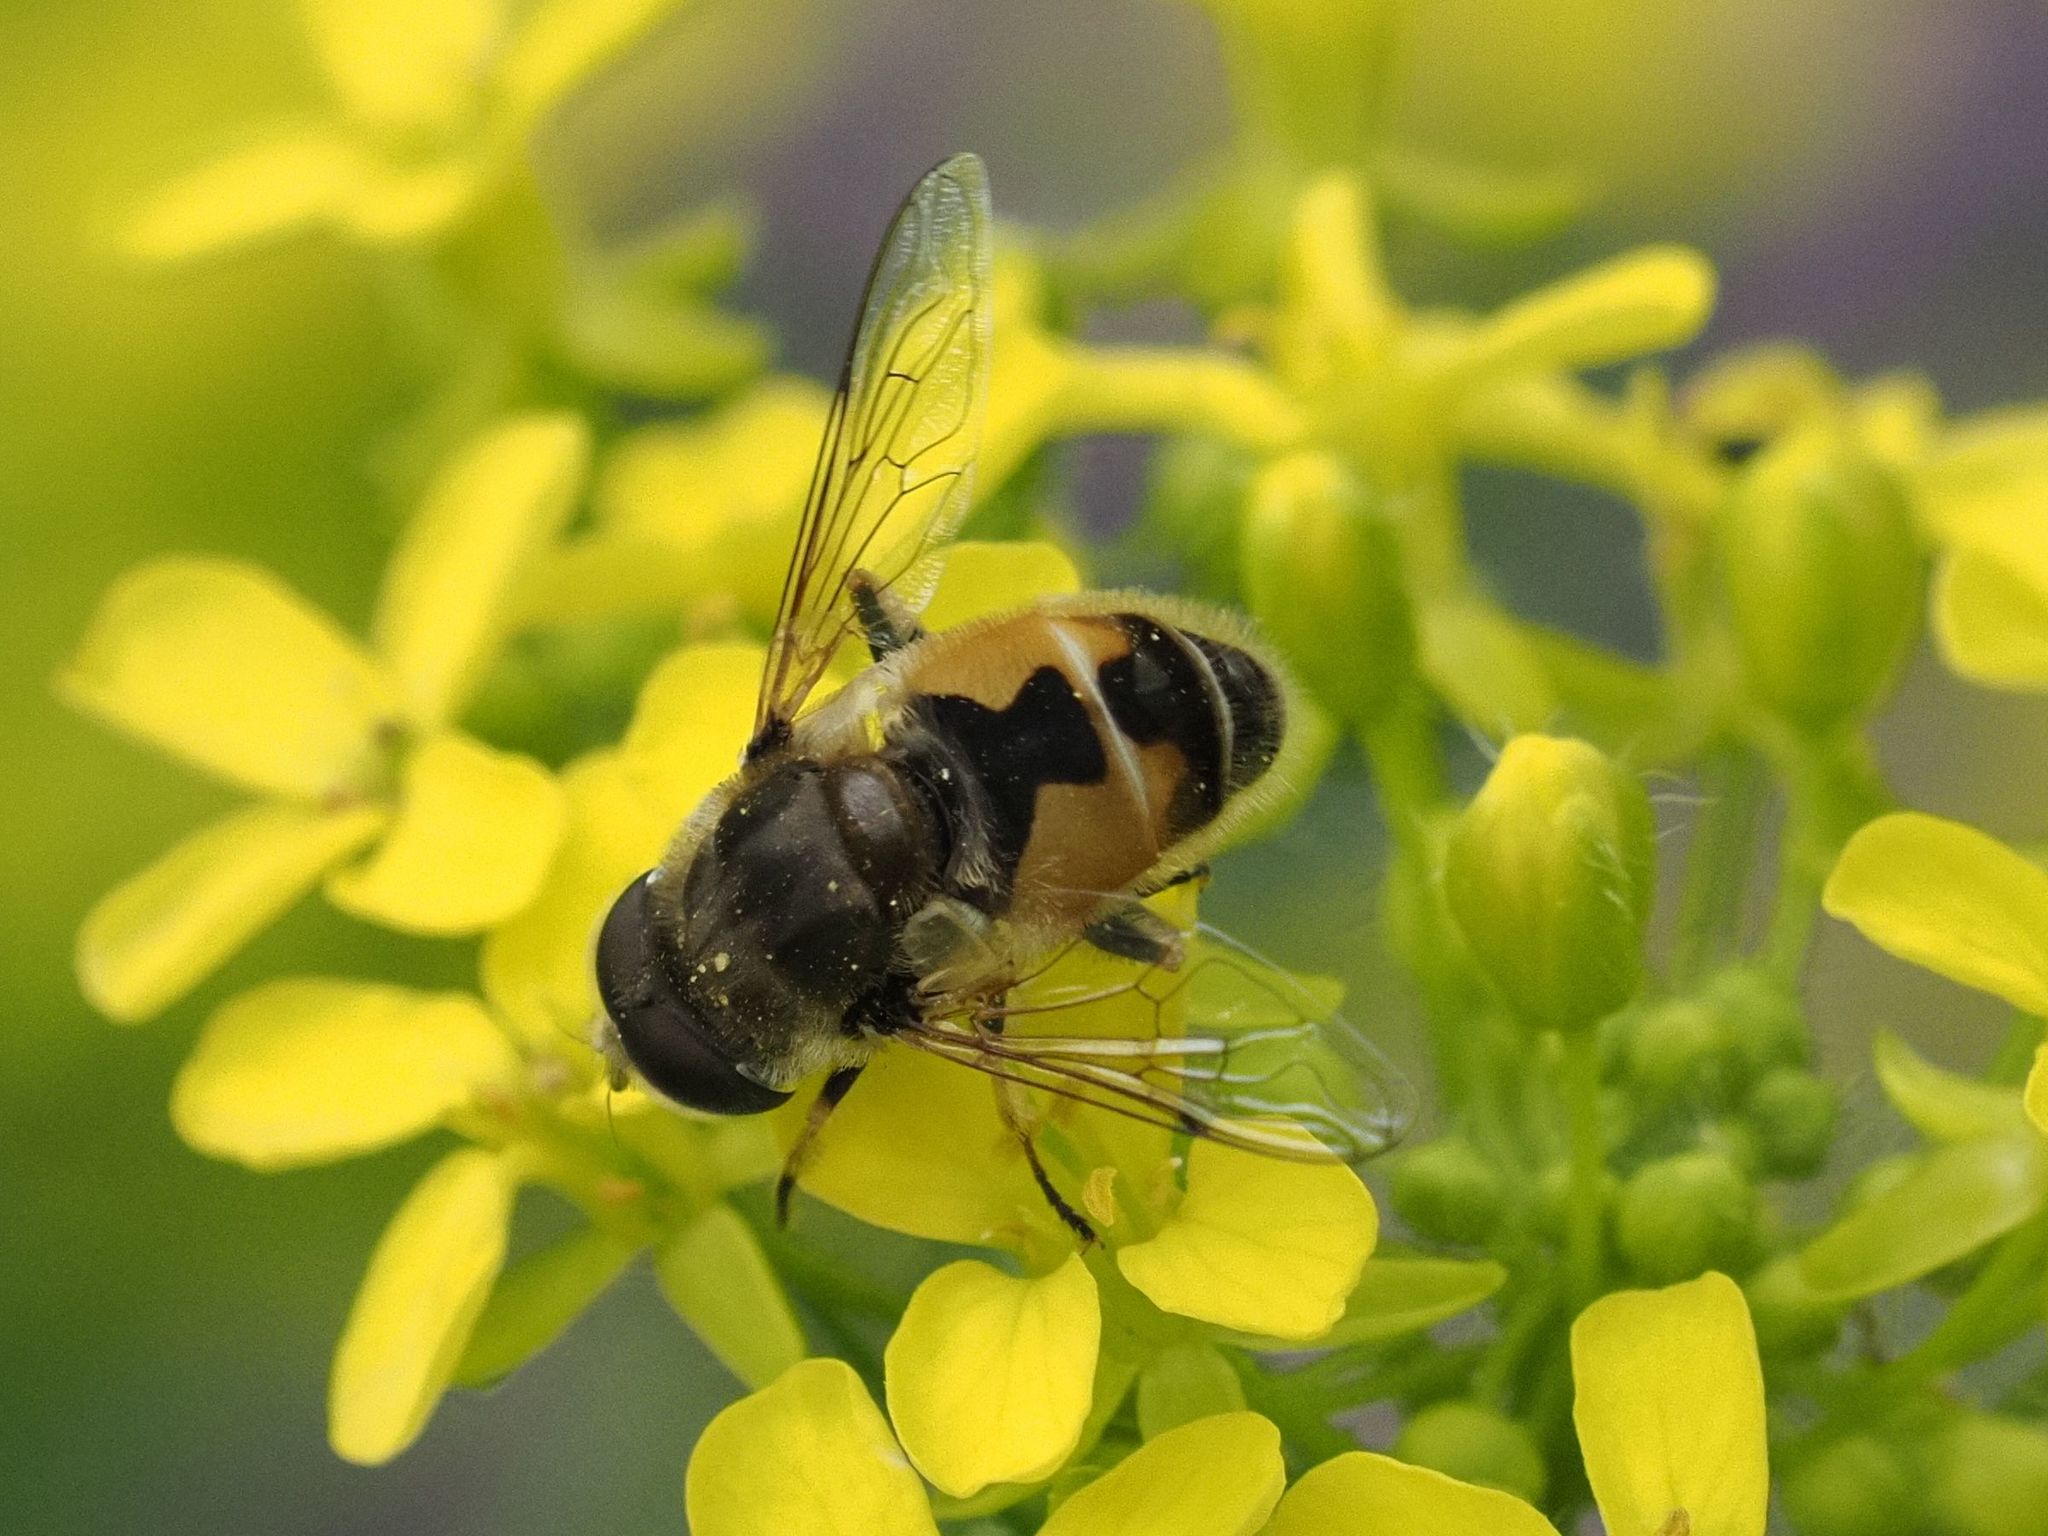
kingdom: Animalia
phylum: Arthropoda
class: Insecta
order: Diptera
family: Syrphidae
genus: Eristalis
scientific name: Eristalis arbustorum
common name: Hover fly
